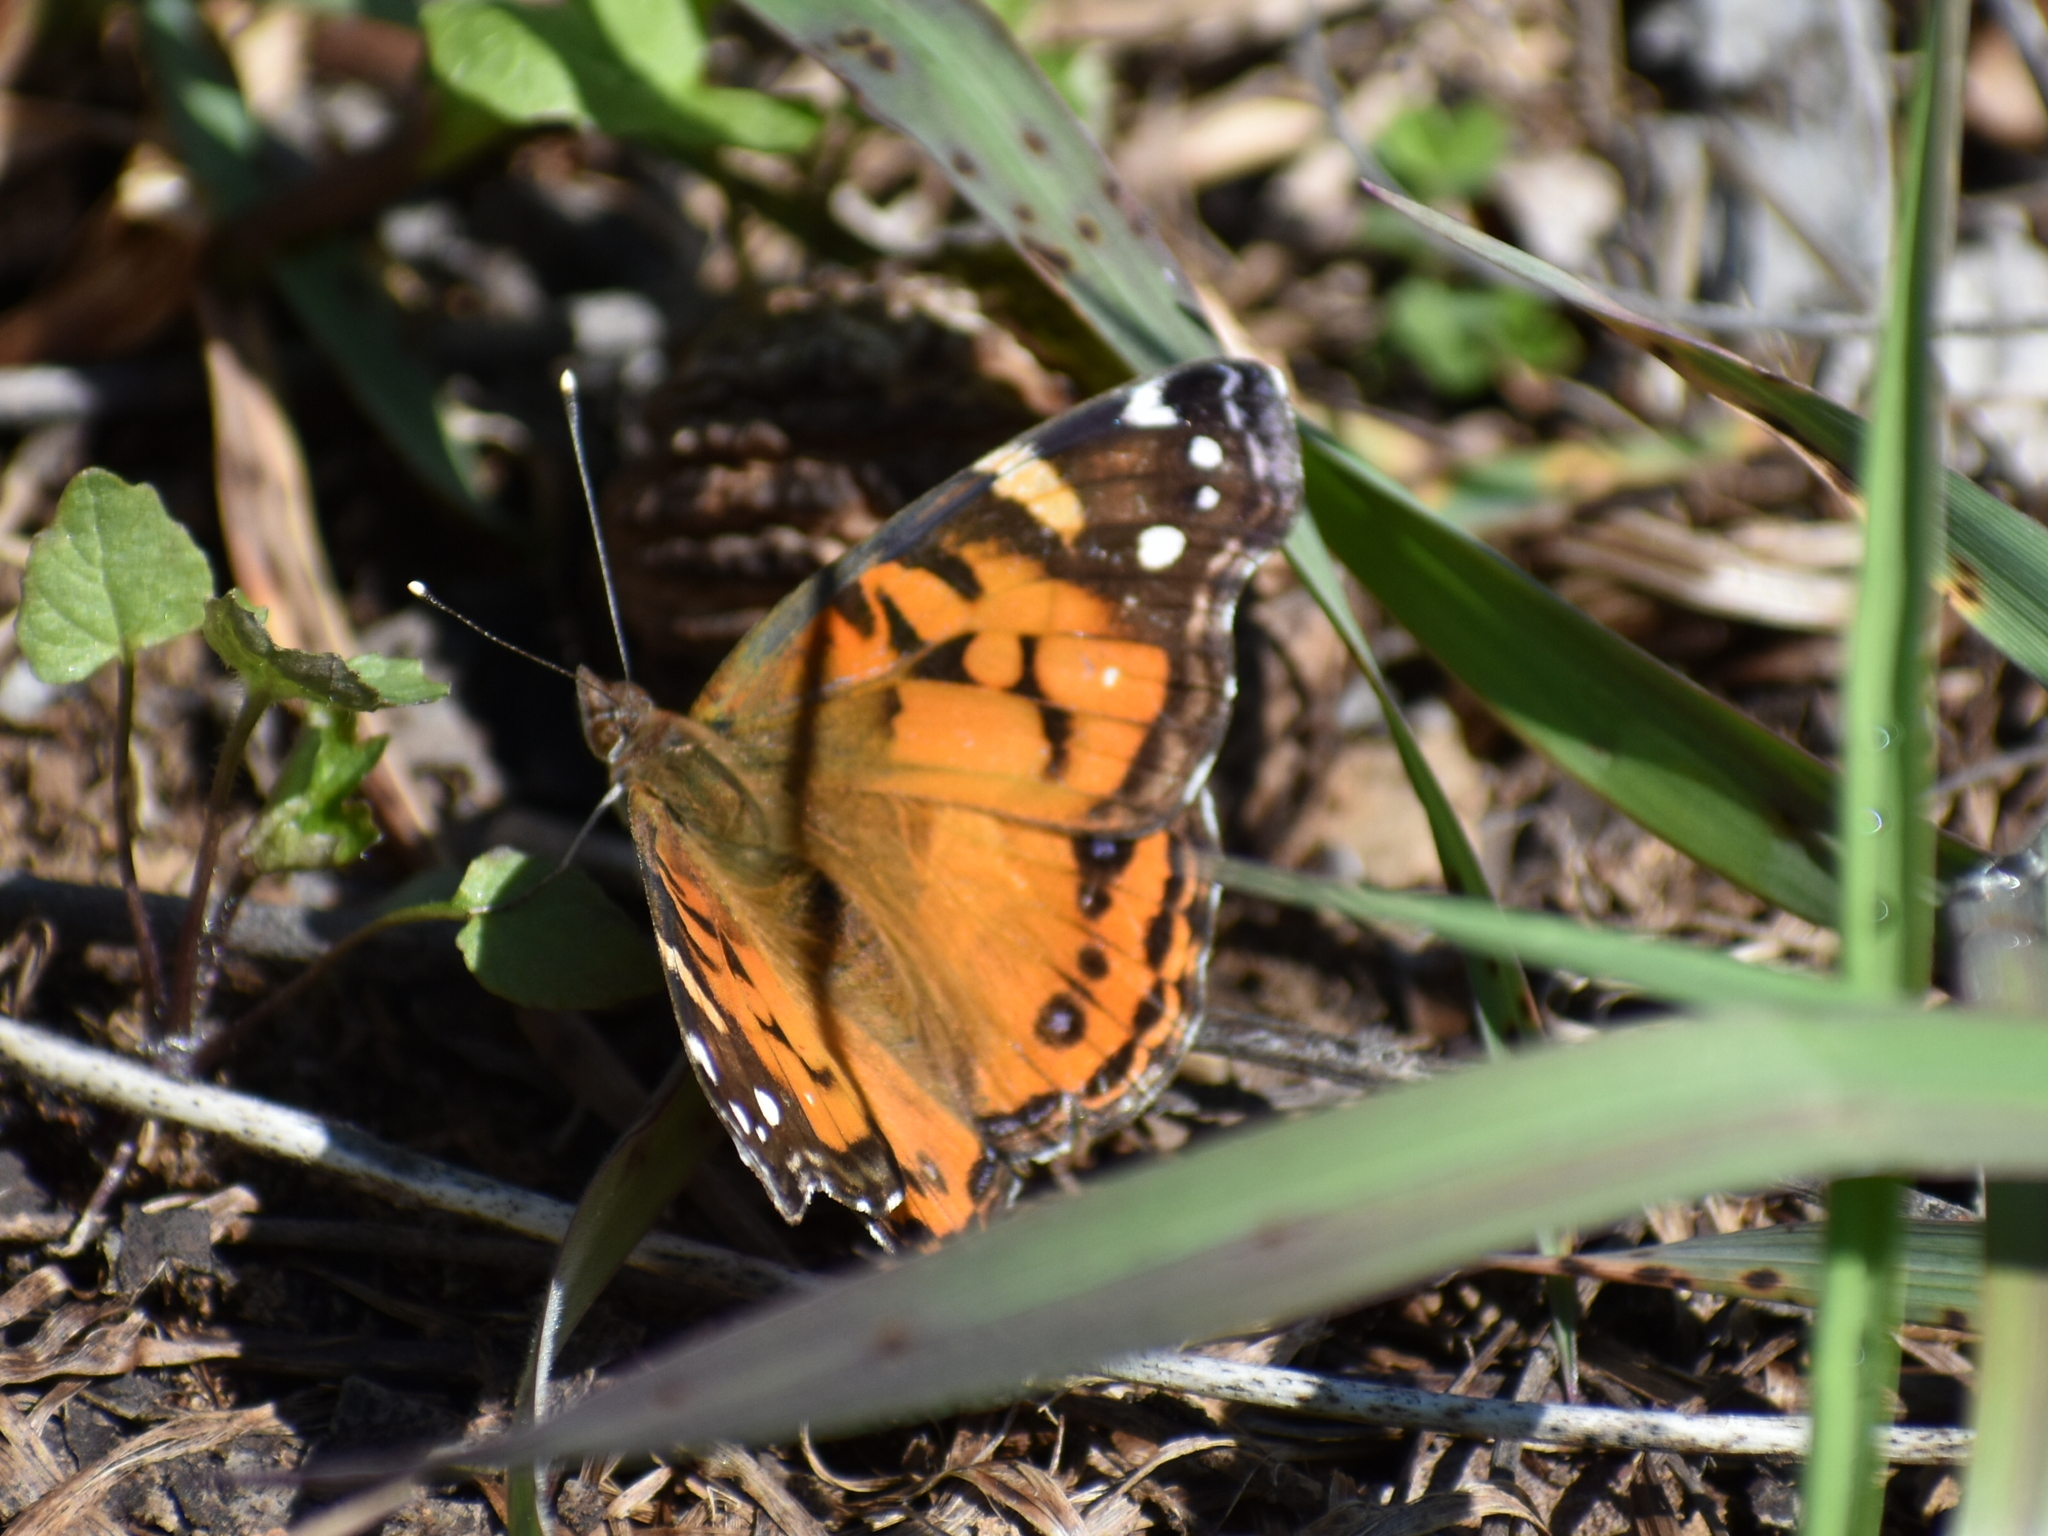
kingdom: Animalia
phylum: Arthropoda
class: Insecta
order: Lepidoptera
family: Nymphalidae
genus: Vanessa
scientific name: Vanessa virginiensis
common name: American lady
